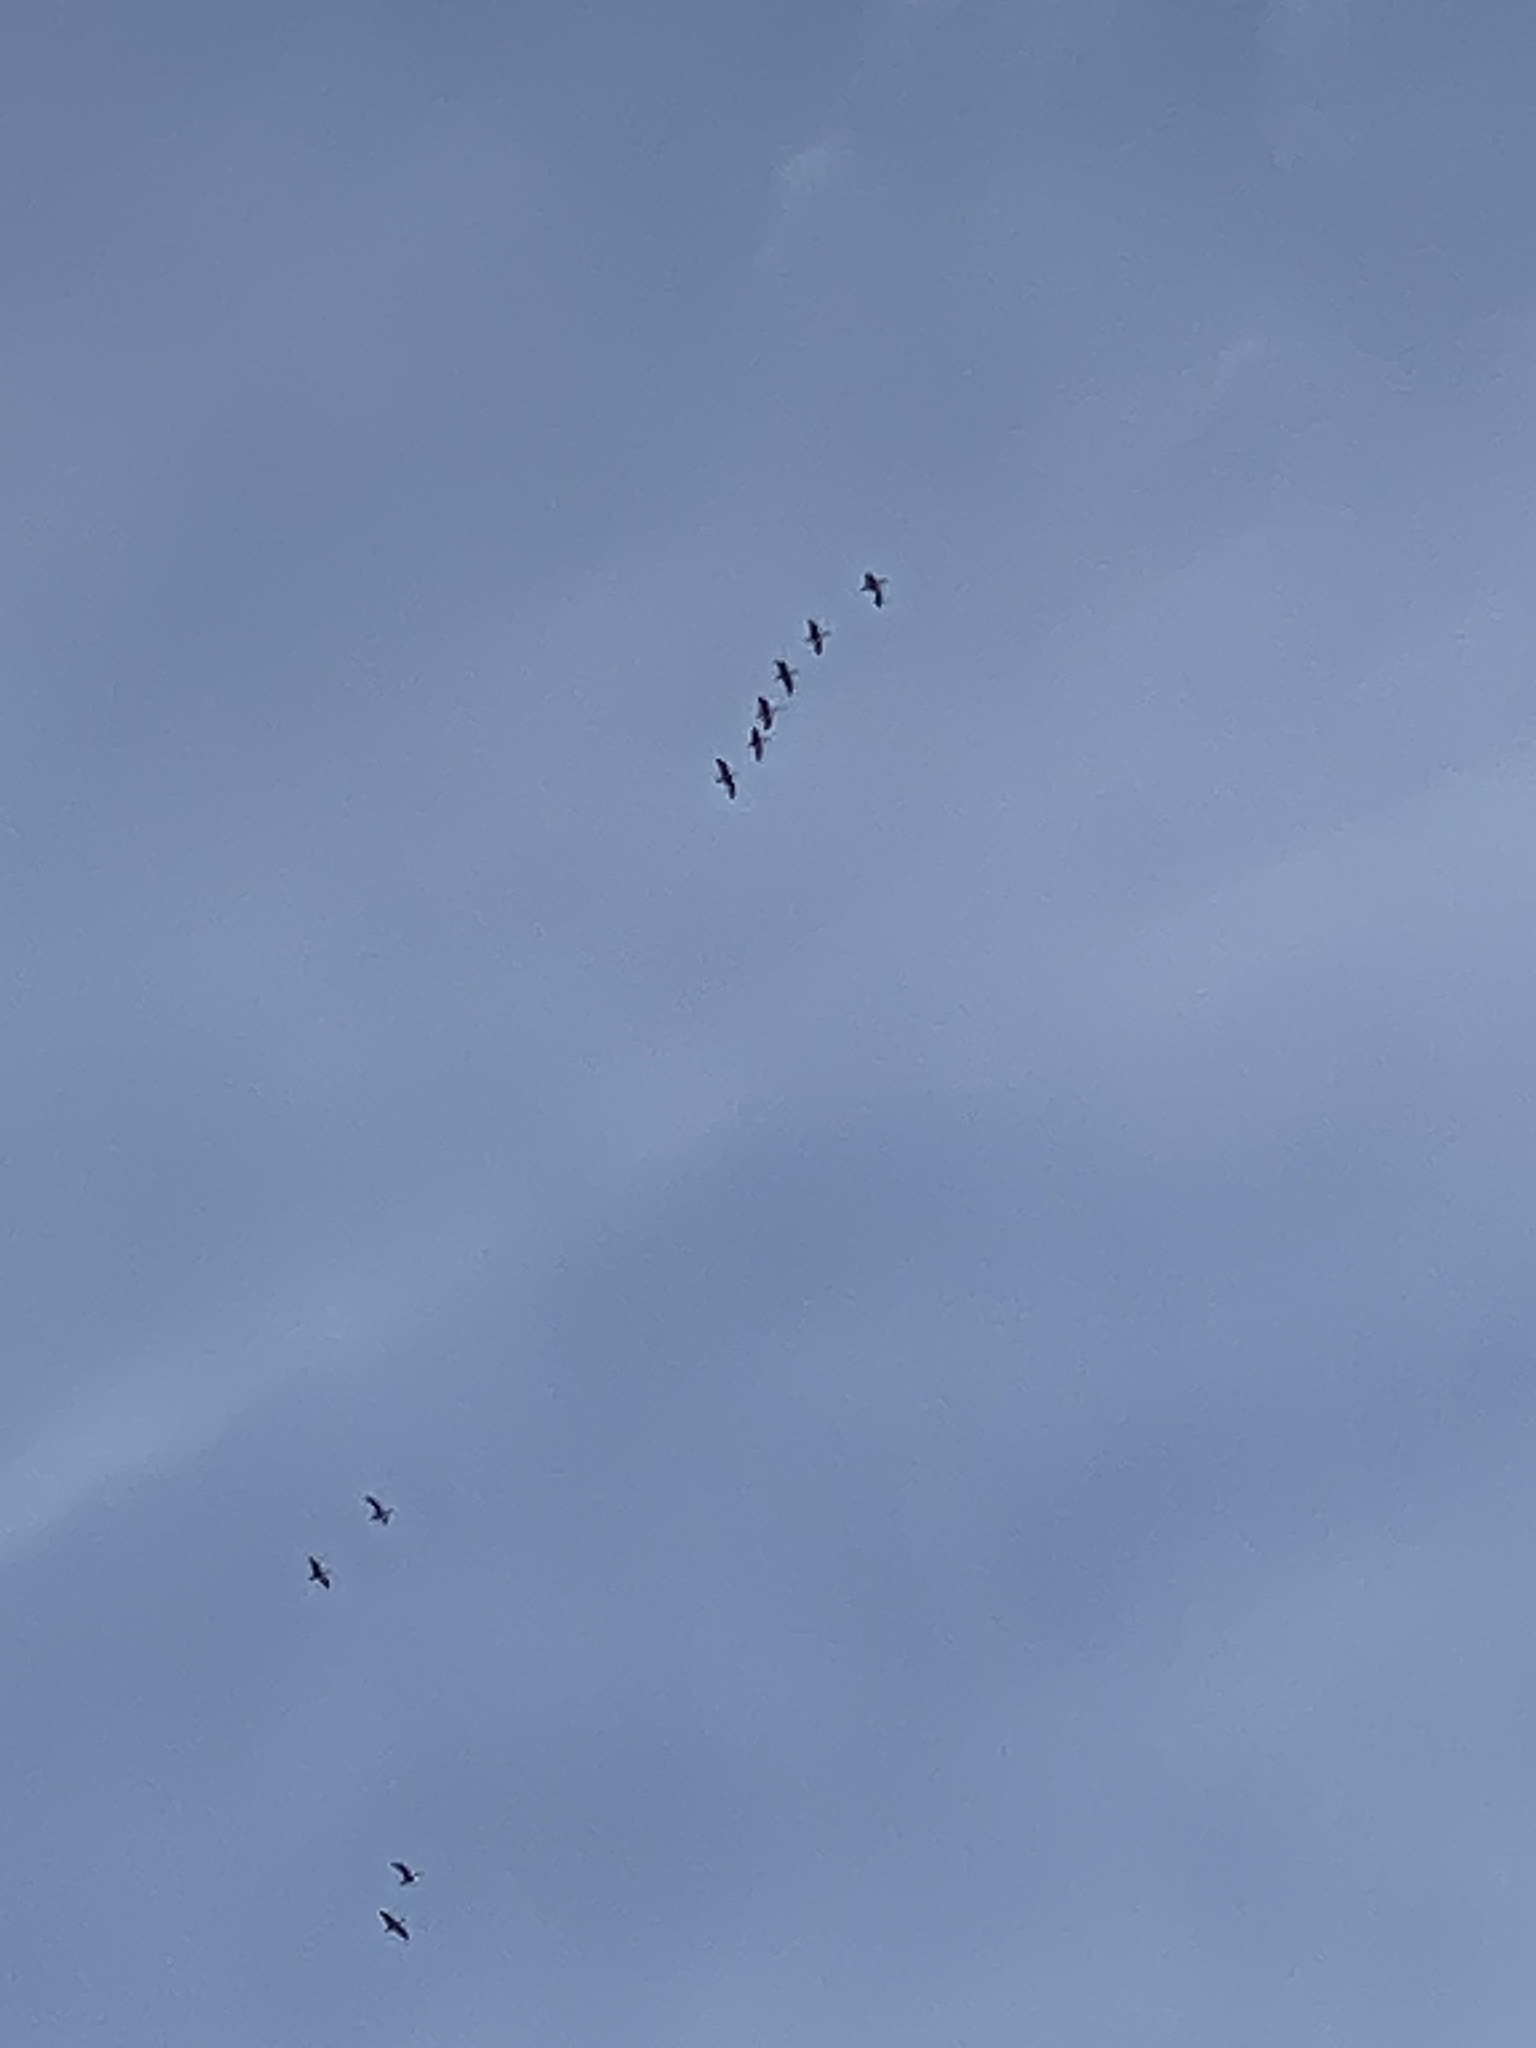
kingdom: Animalia
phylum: Chordata
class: Aves
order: Anseriformes
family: Anatidae
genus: Branta
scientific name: Branta hutchinsii
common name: Cackling goose
